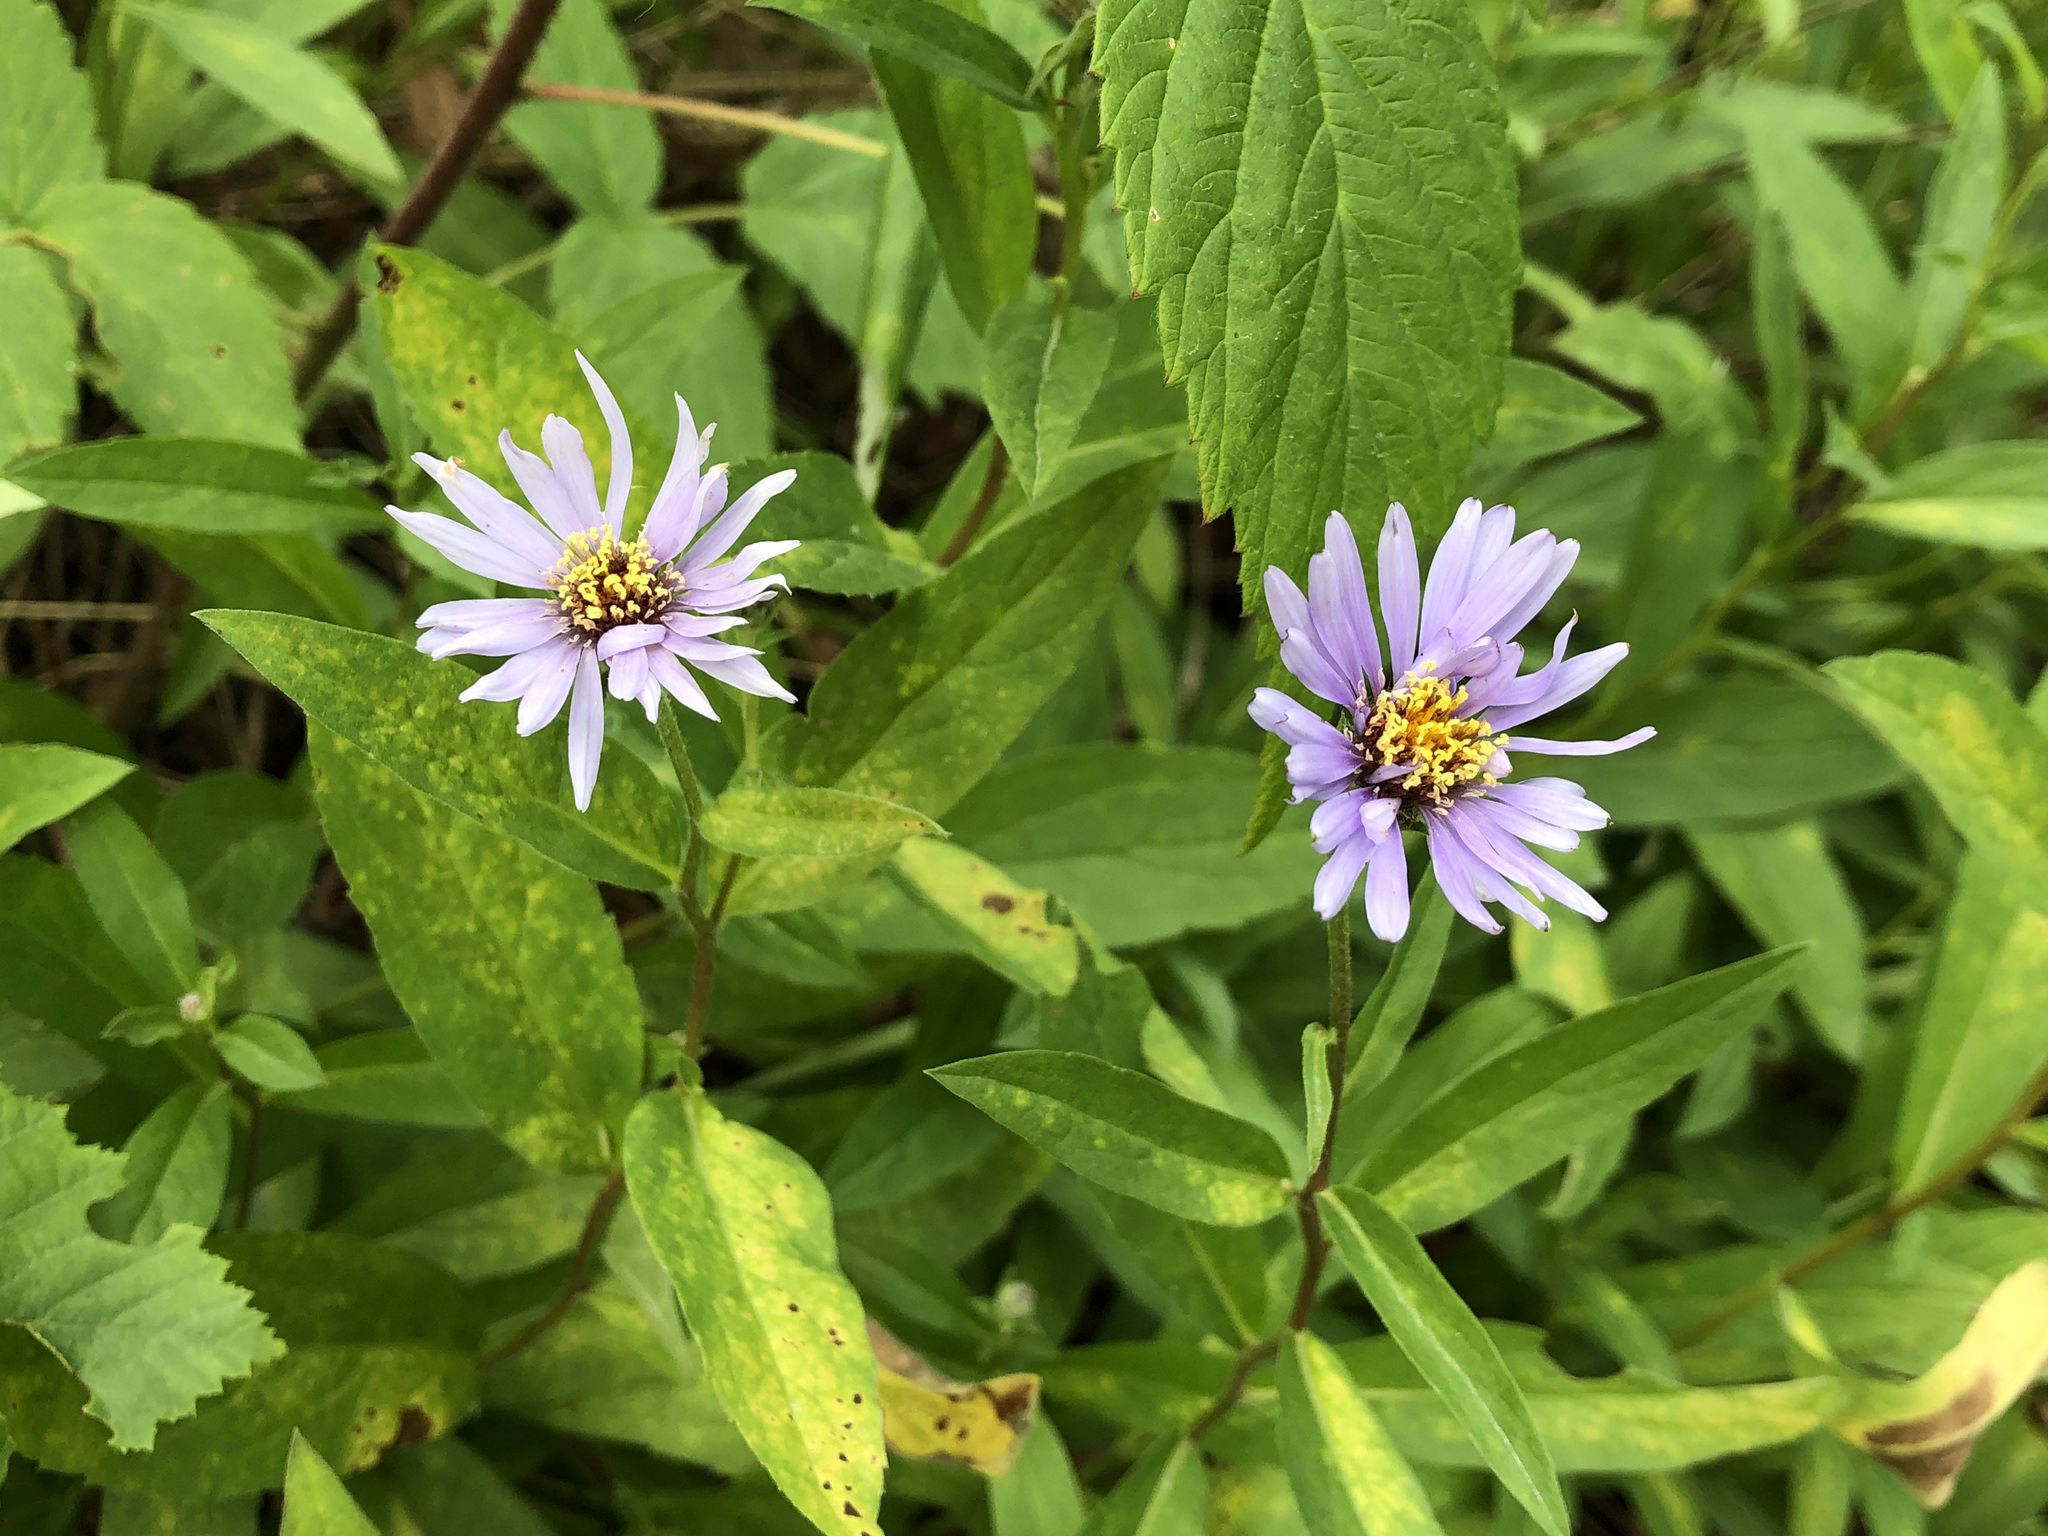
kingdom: Plantae
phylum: Tracheophyta
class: Magnoliopsida
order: Asterales
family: Asteraceae
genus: Eurybia
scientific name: Eurybia sibirica
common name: Arctic aster
